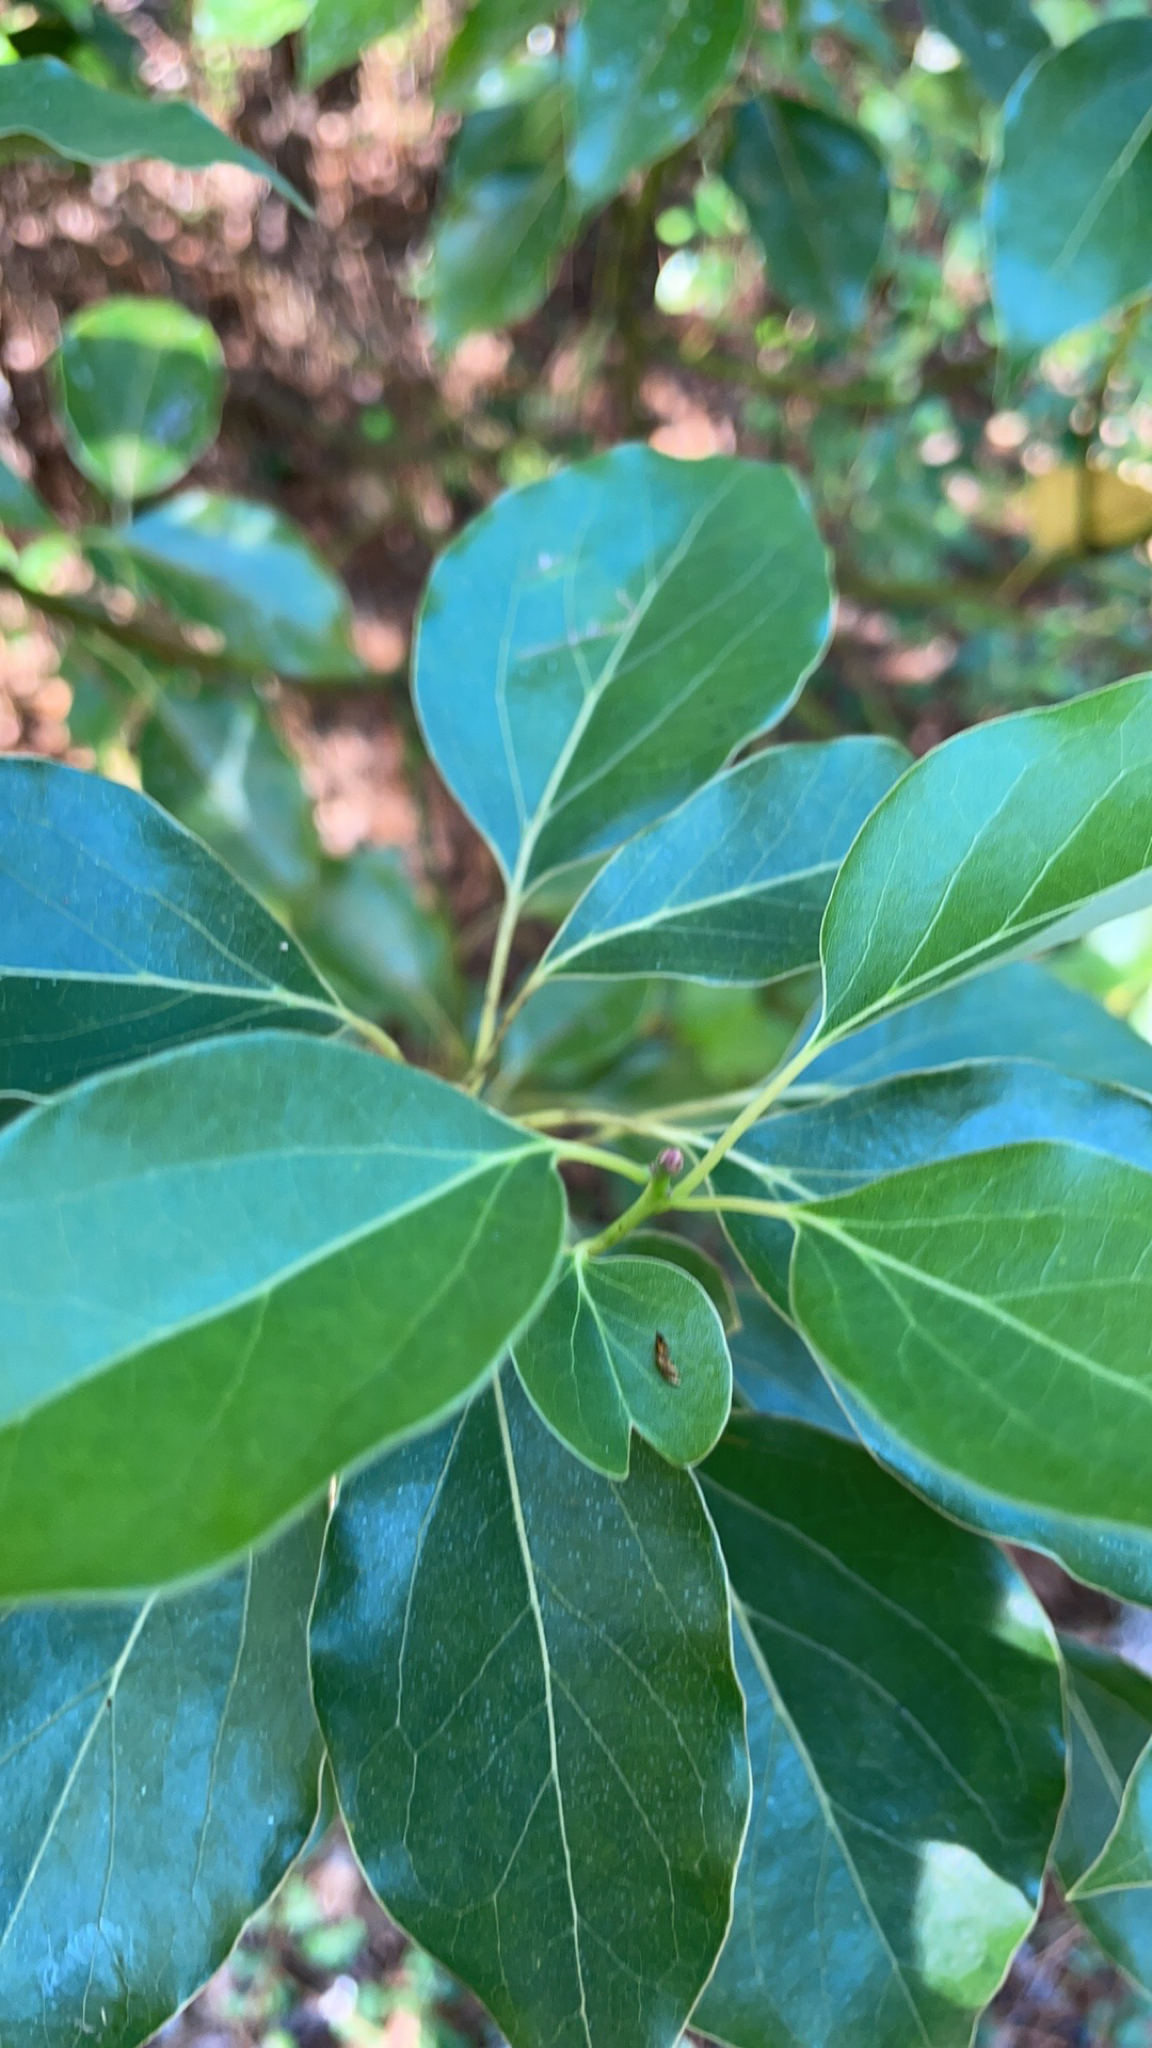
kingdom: Plantae
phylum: Tracheophyta
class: Magnoliopsida
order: Laurales
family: Lauraceae
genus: Cinnamomum
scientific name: Cinnamomum camphora
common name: Camphortree
